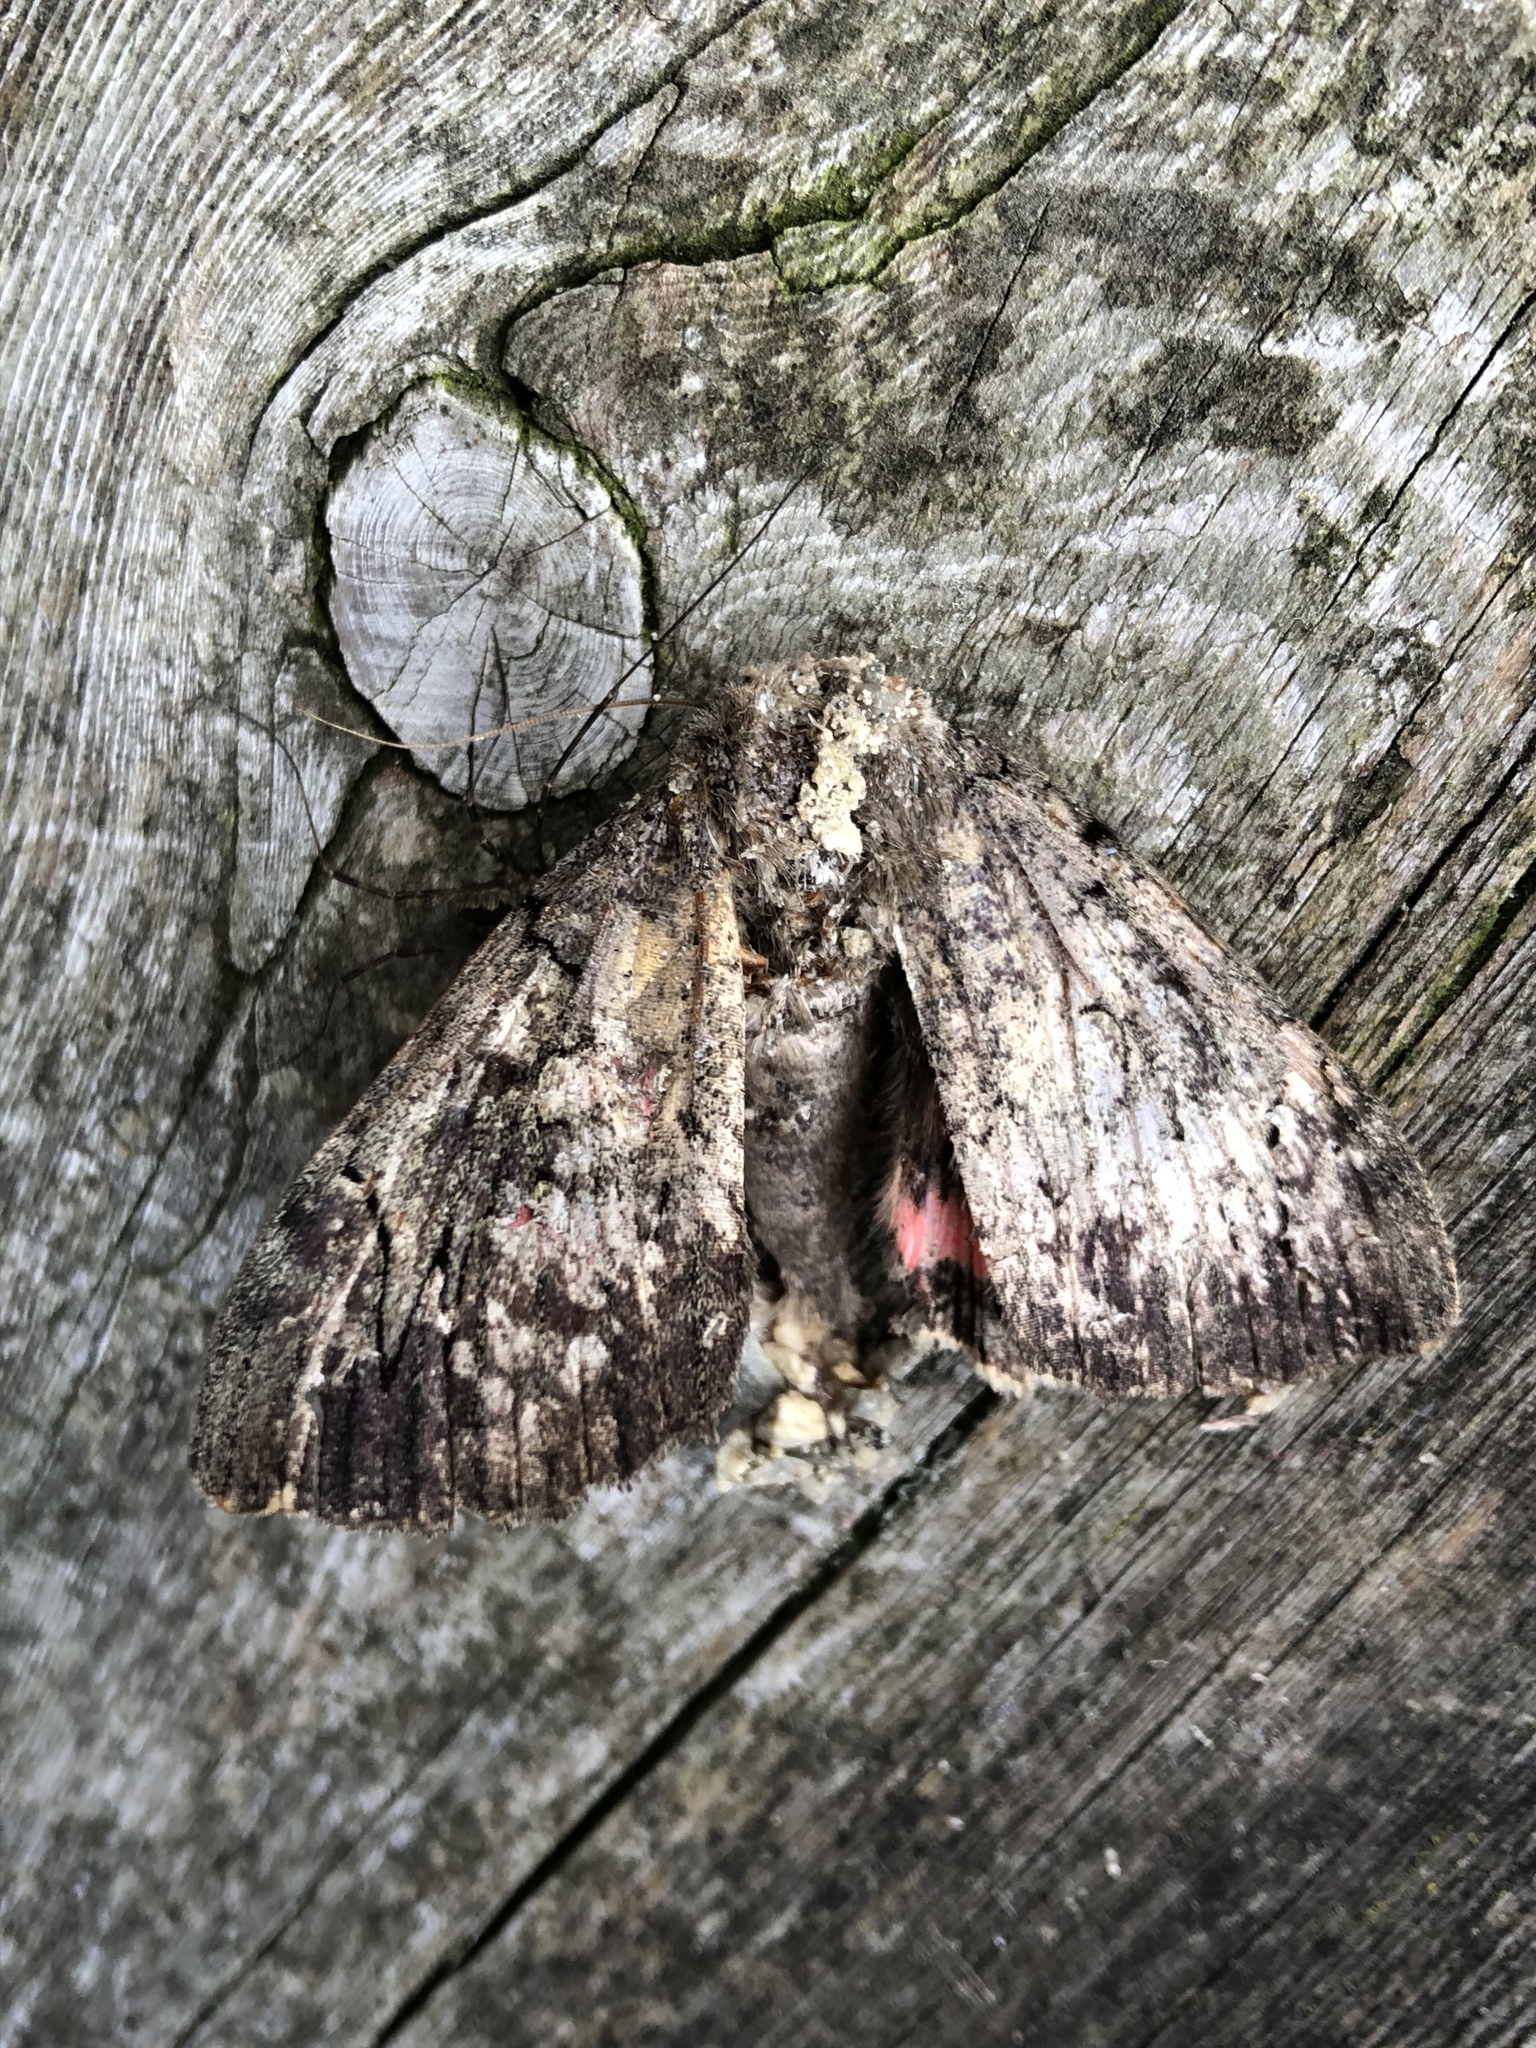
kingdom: Animalia
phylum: Arthropoda
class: Insecta
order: Lepidoptera
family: Erebidae
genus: Catocala
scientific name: Catocala cara
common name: Darling underwing
